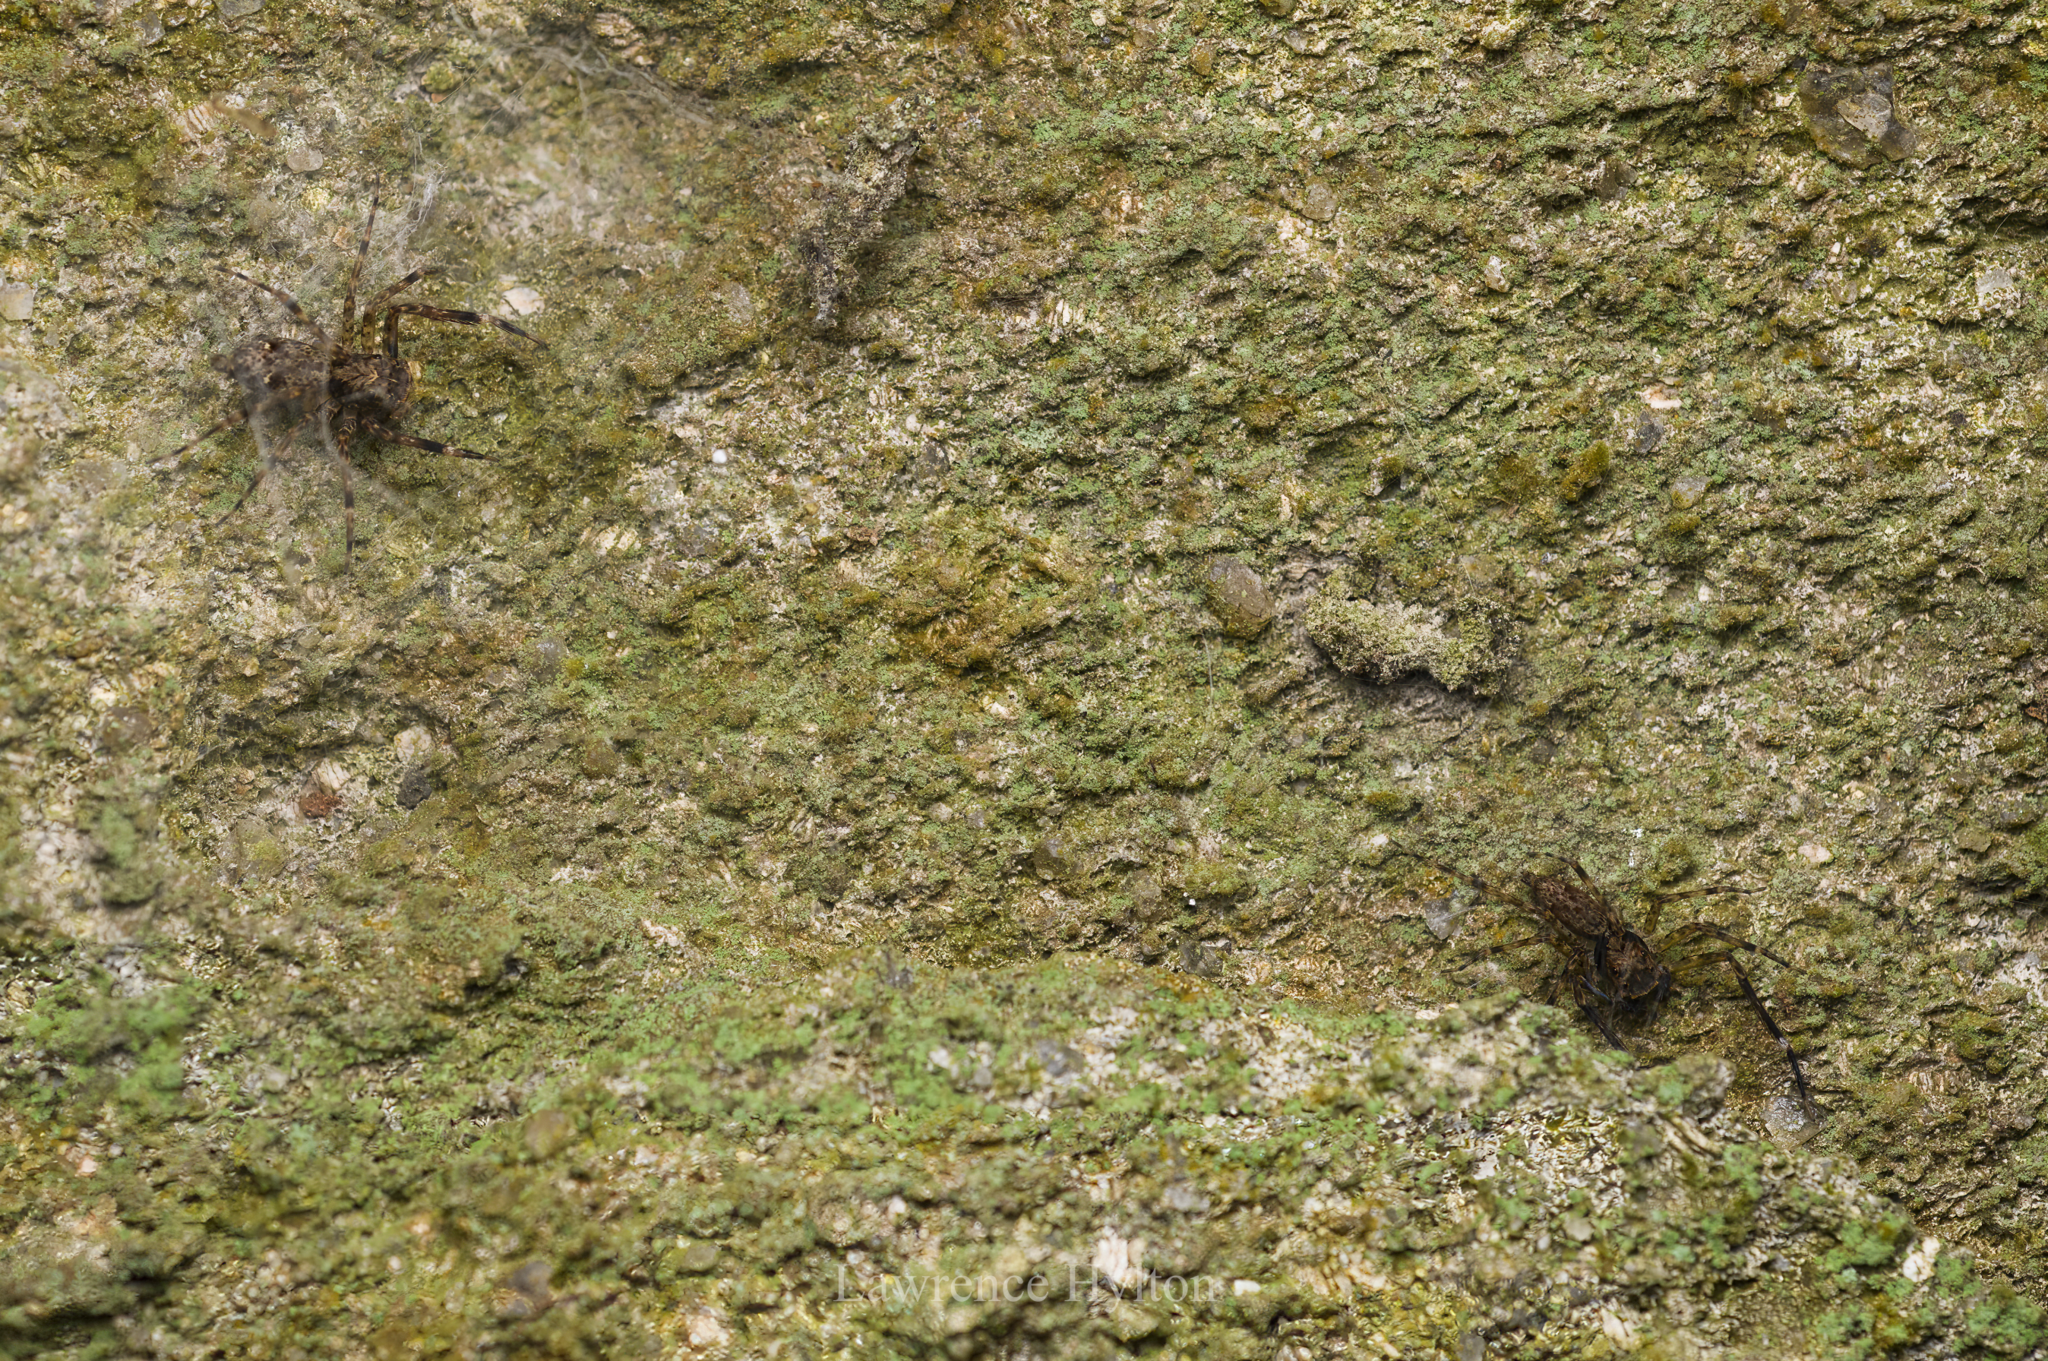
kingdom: Animalia
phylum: Arthropoda
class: Arachnida
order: Araneae
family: Salticidae
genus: Spartaeus
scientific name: Spartaeus zhangi
